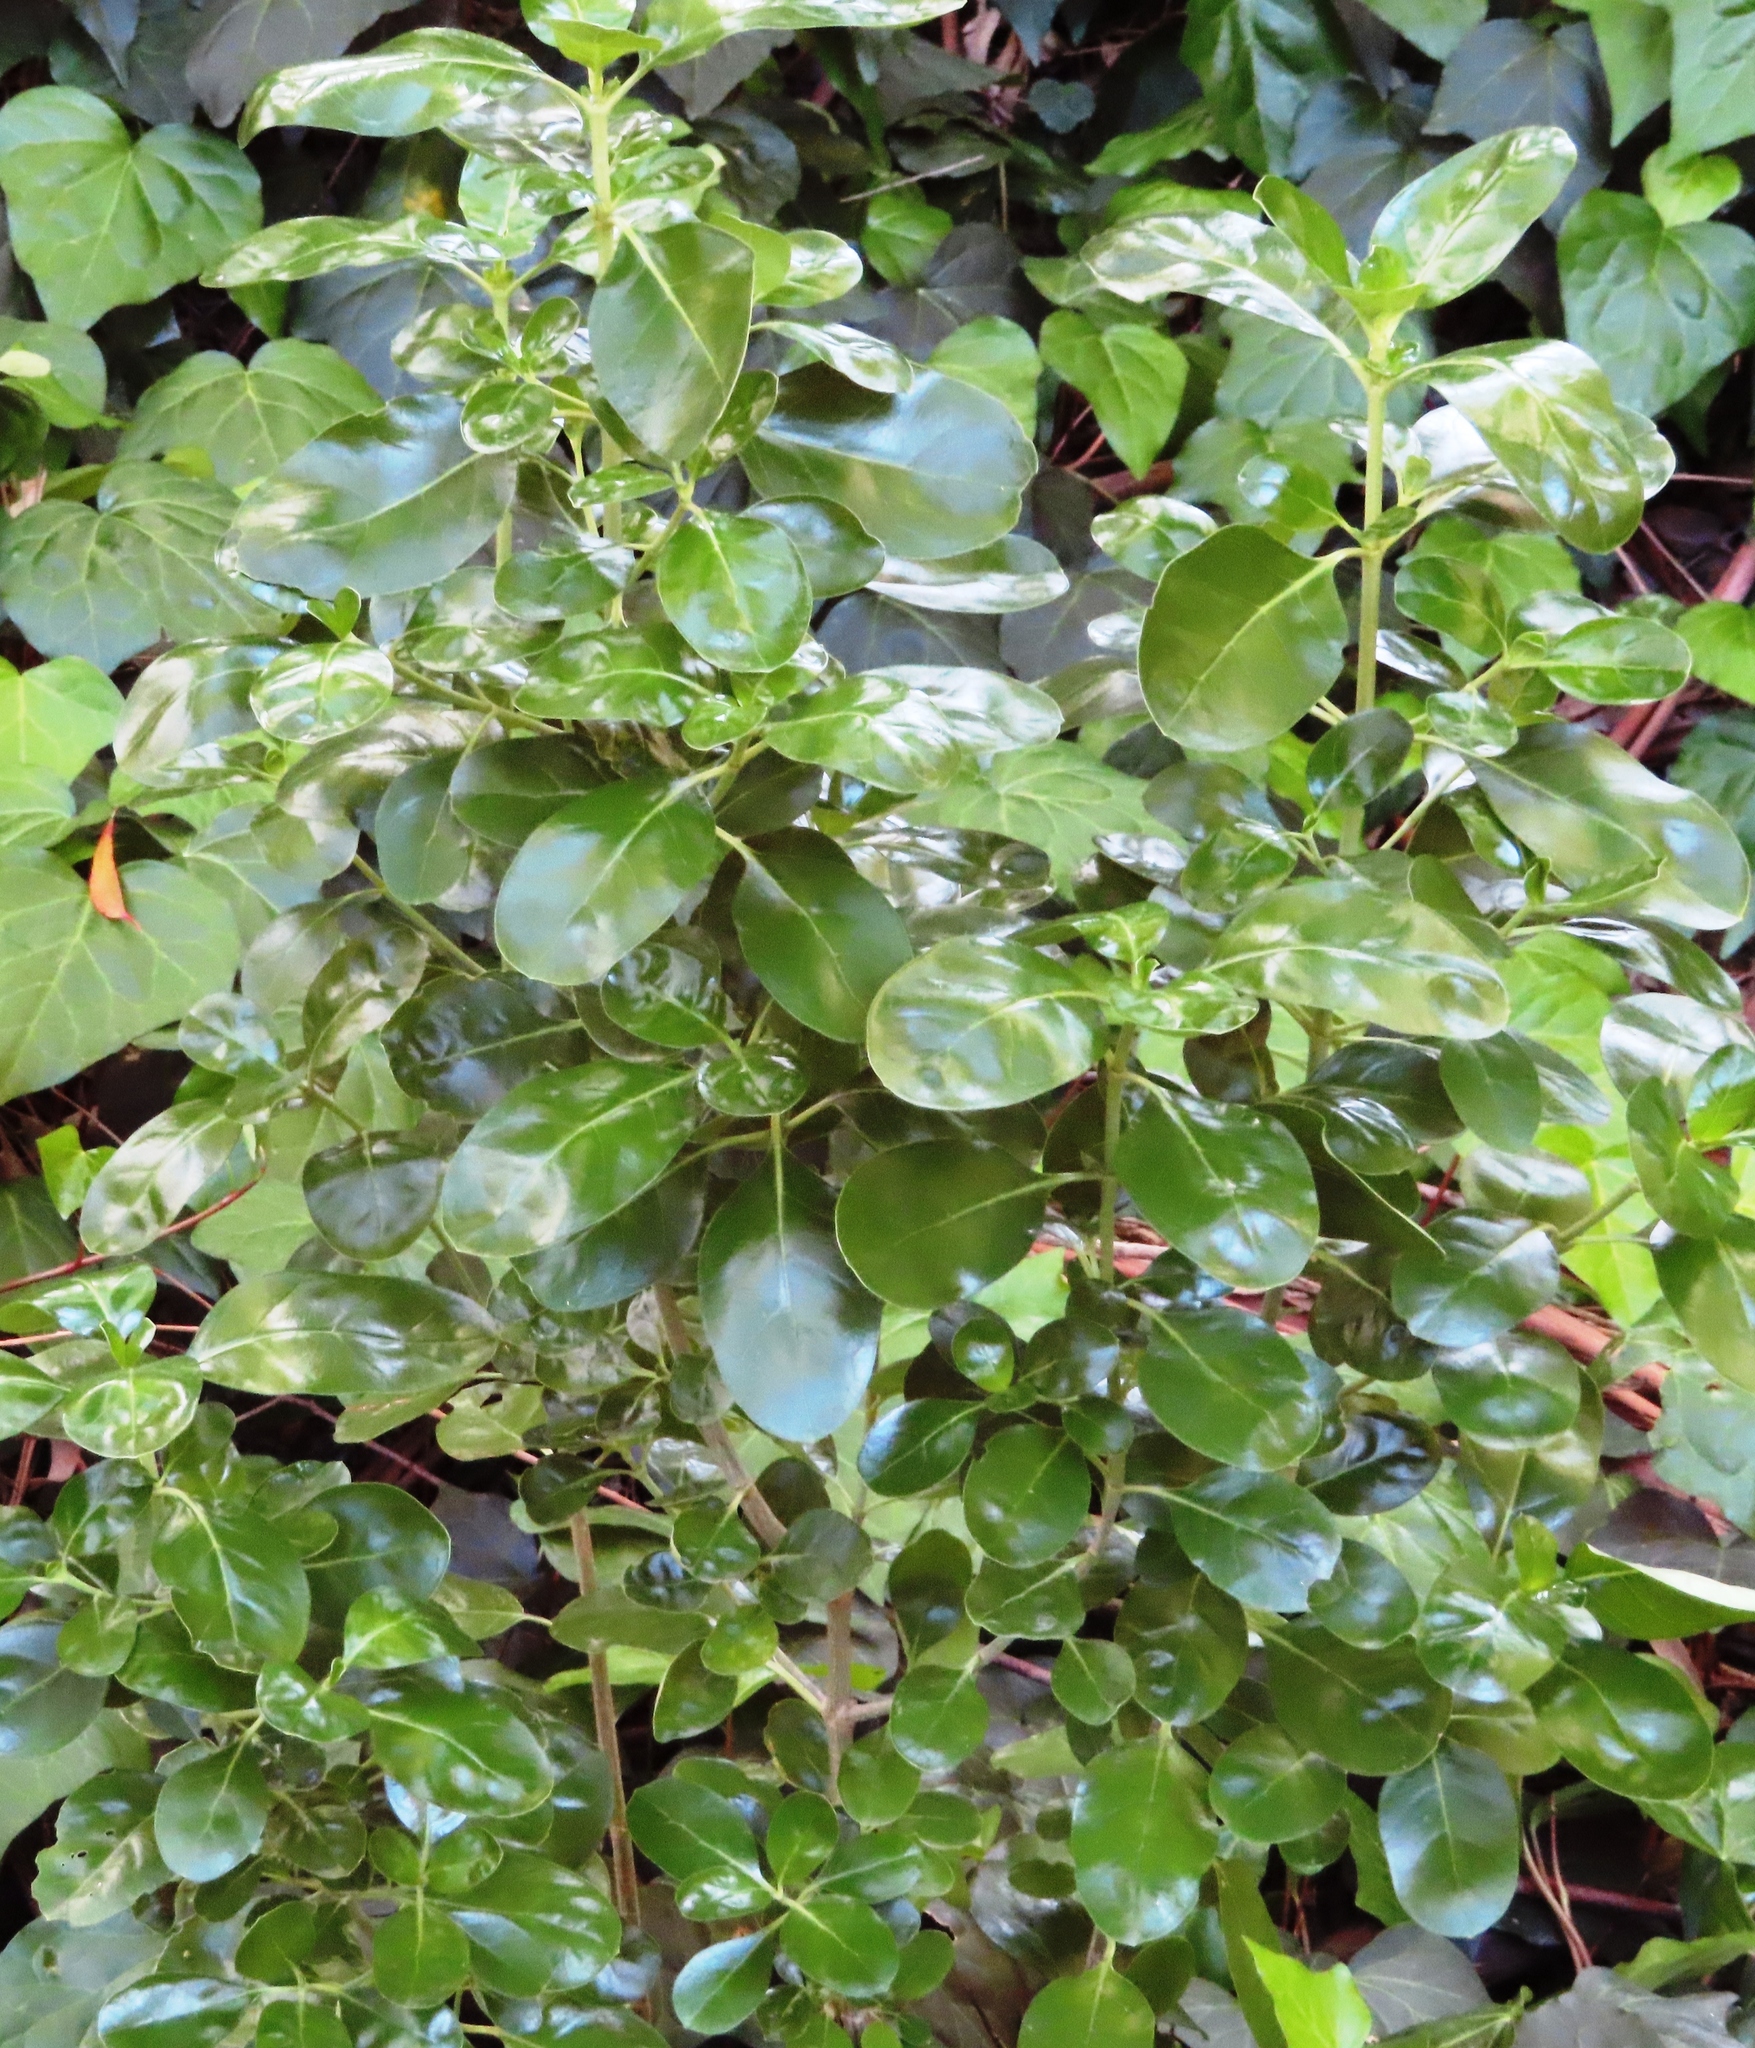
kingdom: Plantae
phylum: Tracheophyta
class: Magnoliopsida
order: Gentianales
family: Rubiaceae
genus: Coprosma
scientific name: Coprosma repens
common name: Tree bedstraw
